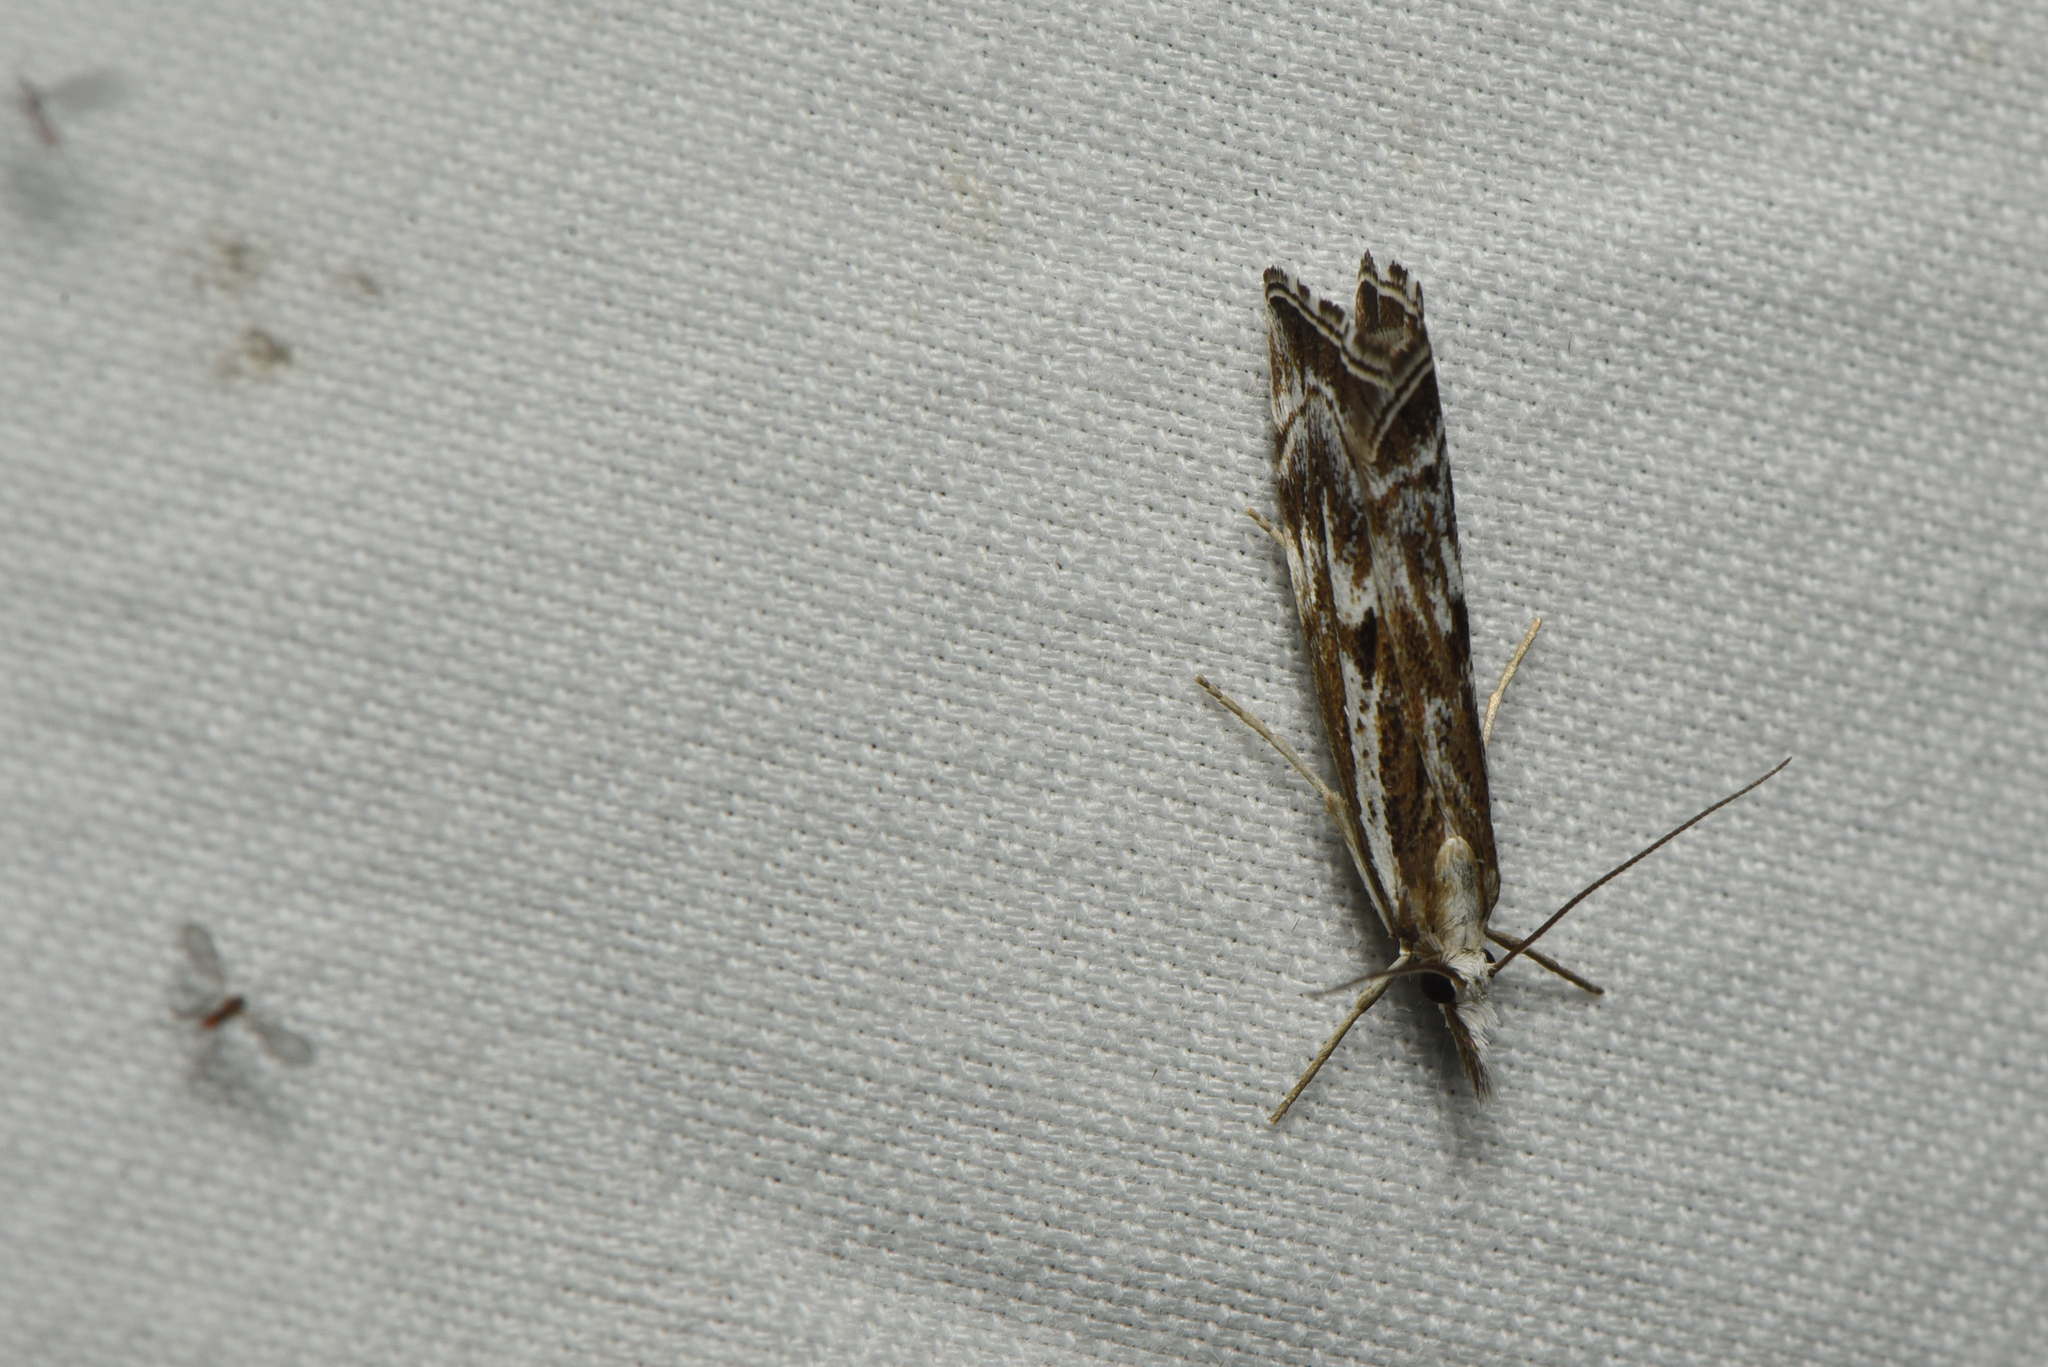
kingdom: Animalia
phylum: Arthropoda
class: Insecta
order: Lepidoptera
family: Crambidae
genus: Catoptria
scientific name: Catoptria oregonicus
